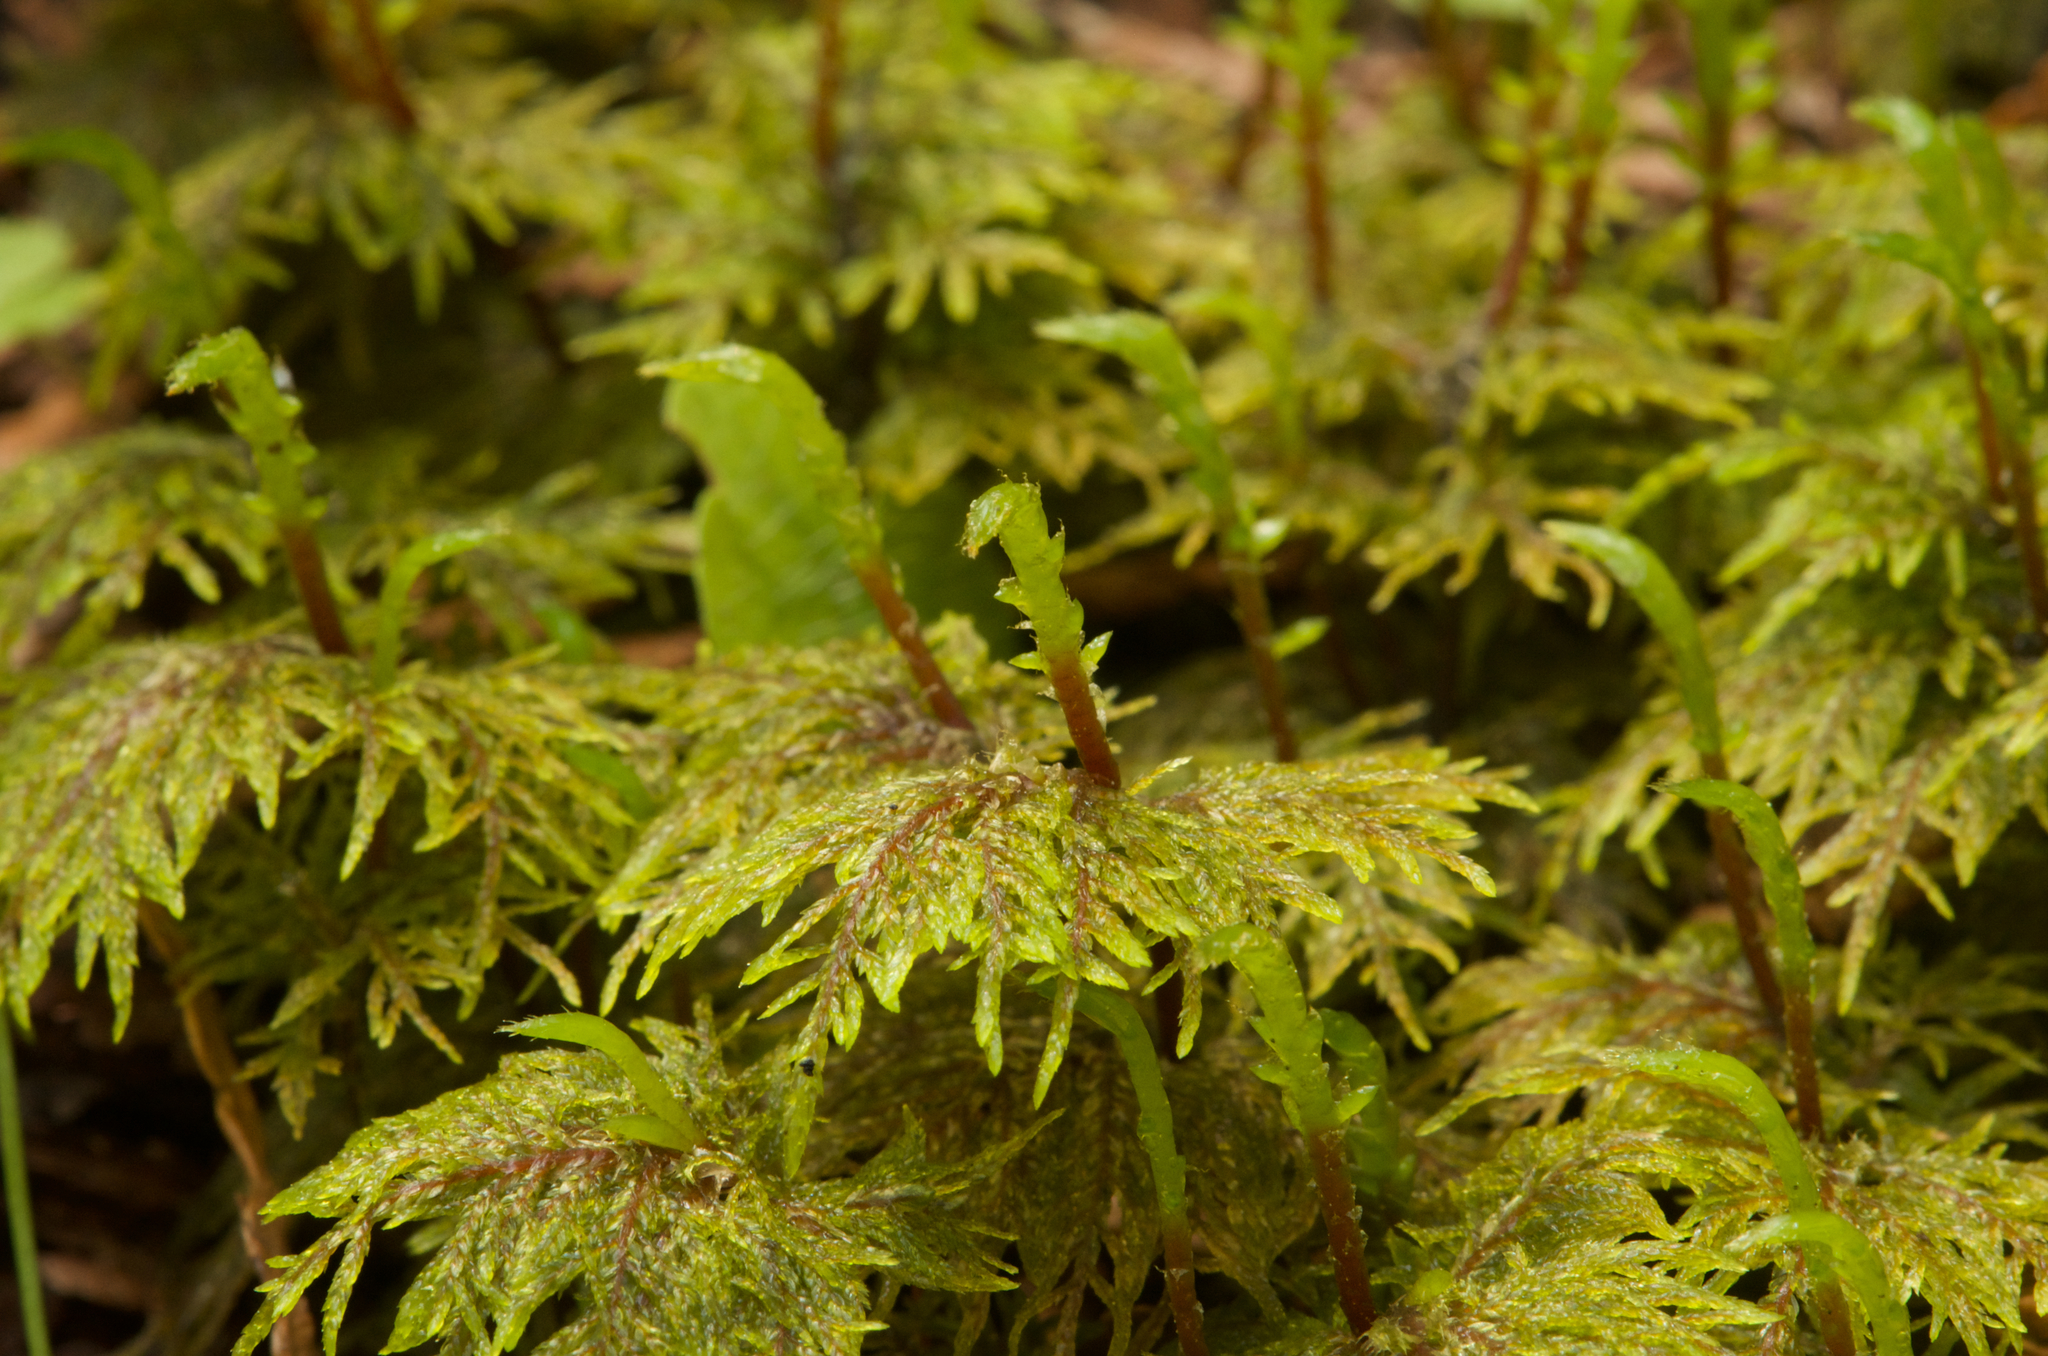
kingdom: Plantae
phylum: Bryophyta
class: Bryopsida
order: Hypnales
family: Hylocomiaceae
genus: Hylocomium
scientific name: Hylocomium splendens
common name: Stairstep moss
